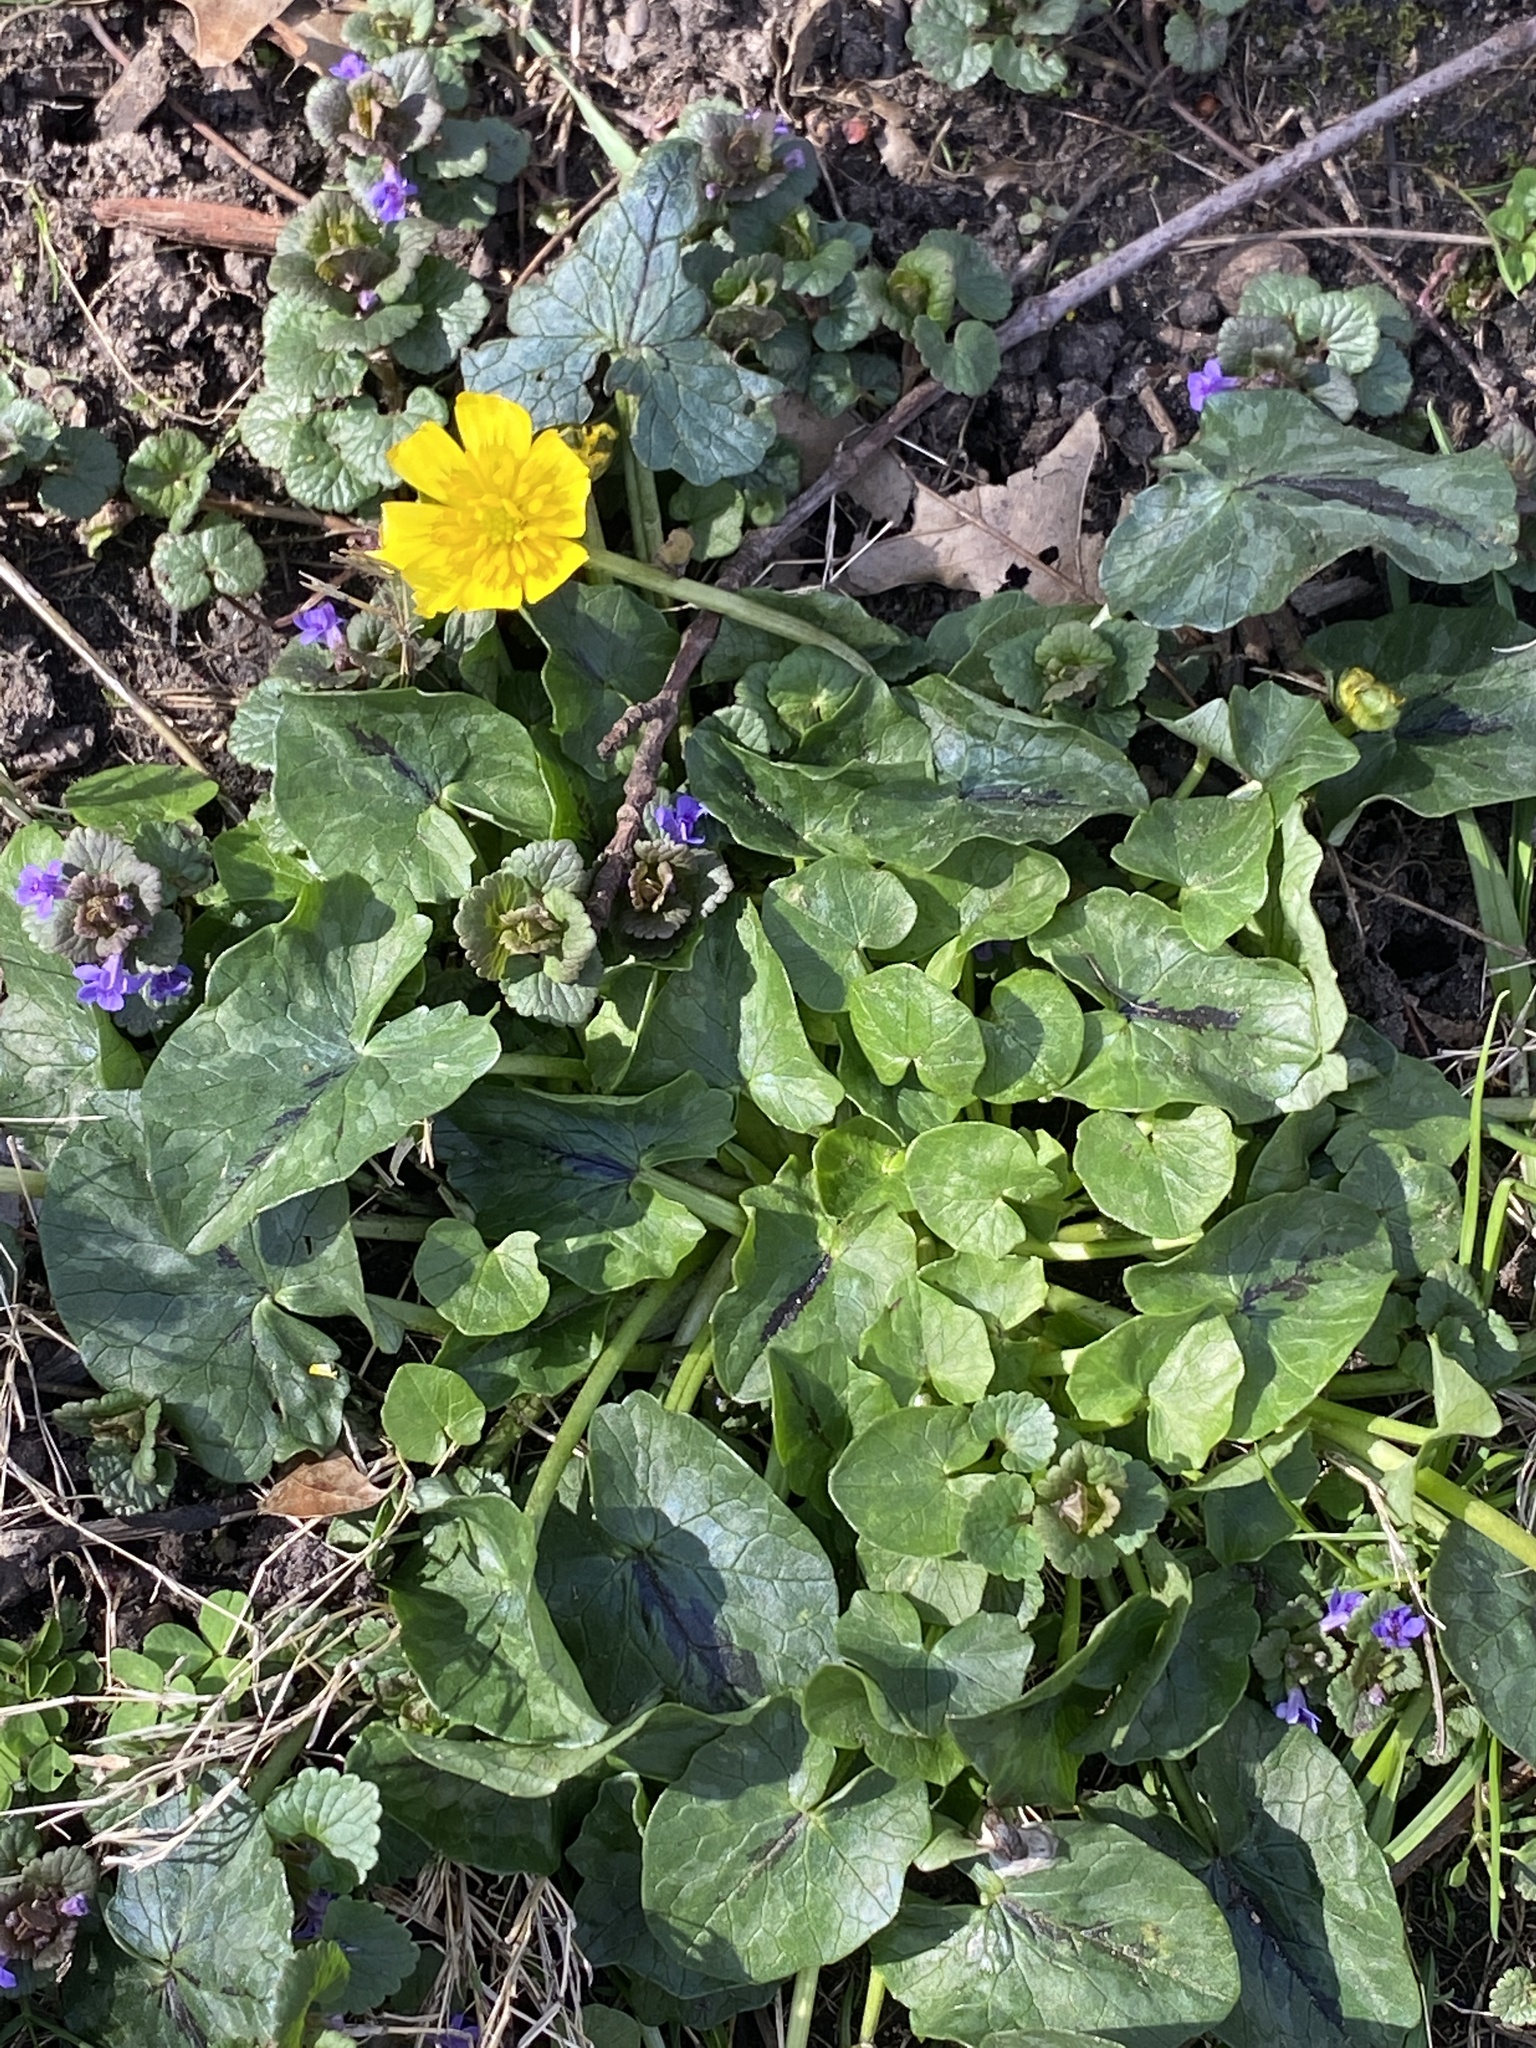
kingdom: Plantae
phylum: Tracheophyta
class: Magnoliopsida
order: Ranunculales
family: Ranunculaceae
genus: Ficaria
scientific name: Ficaria verna
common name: Lesser celandine
